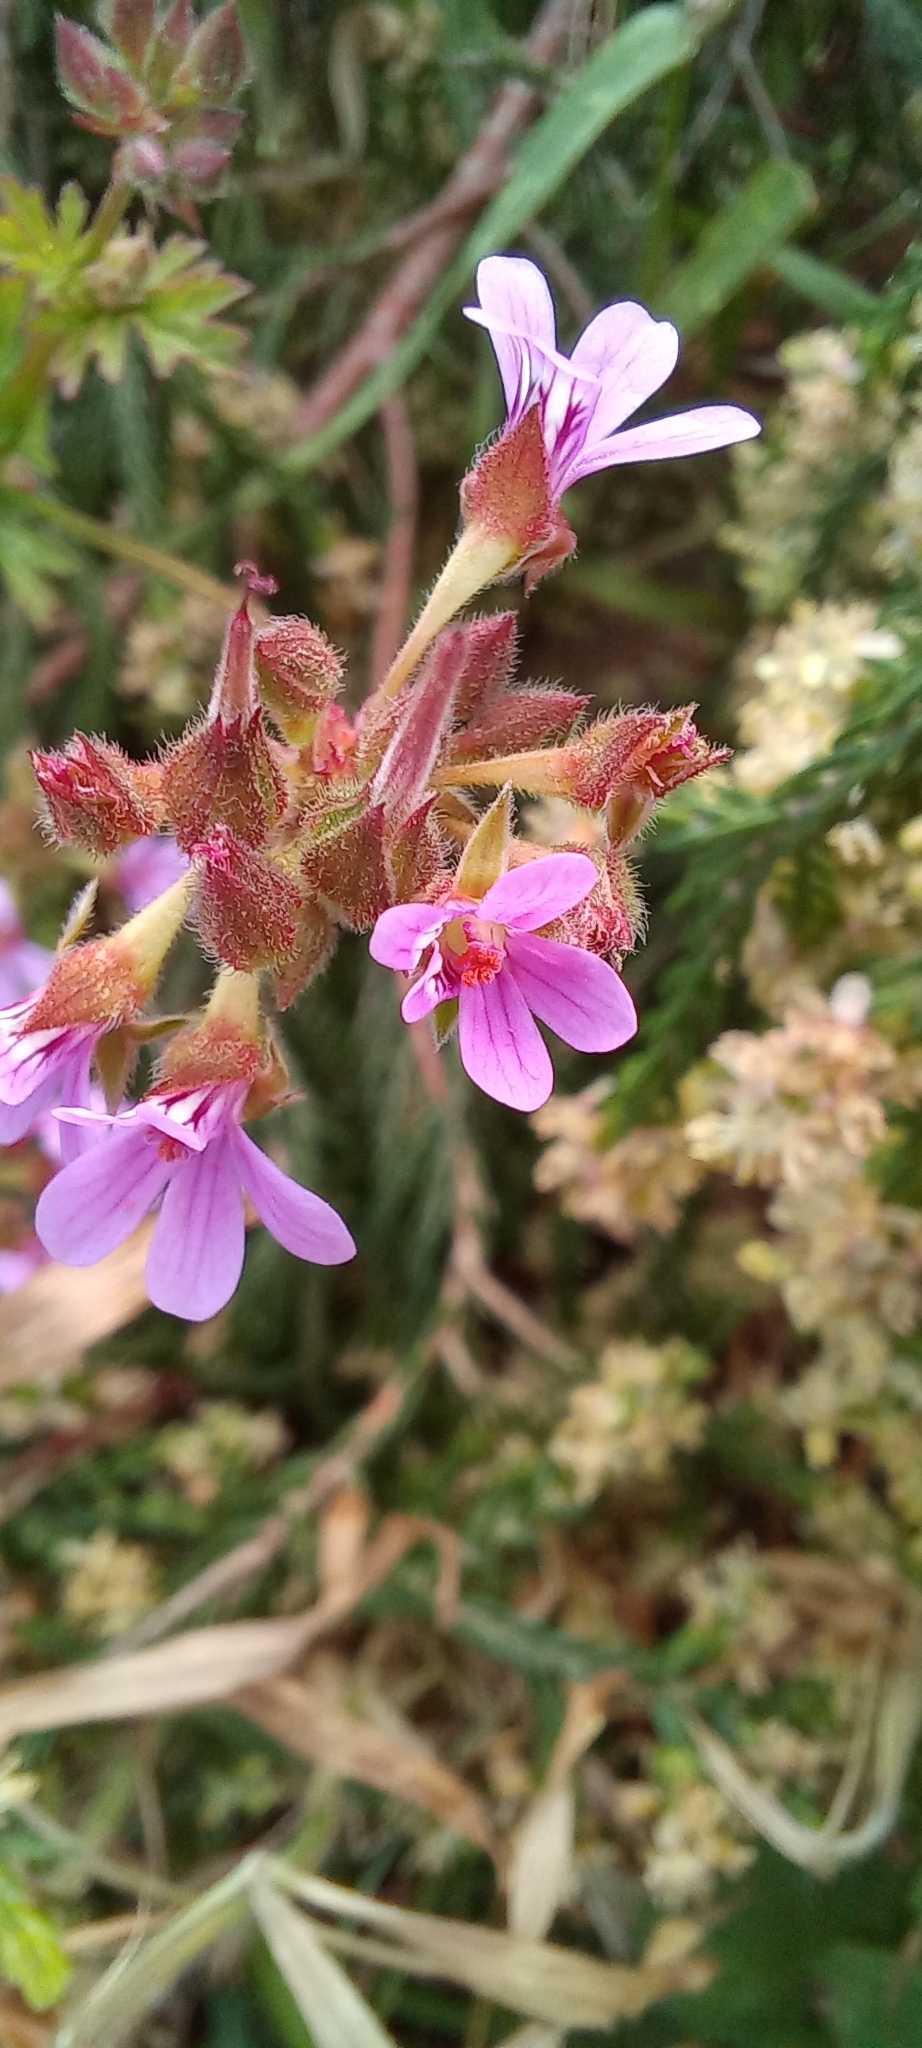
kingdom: Plantae
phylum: Tracheophyta
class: Magnoliopsida
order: Geraniales
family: Geraniaceae
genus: Pelargonium
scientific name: Pelargonium grossularioides
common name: Gooseberry geranium
